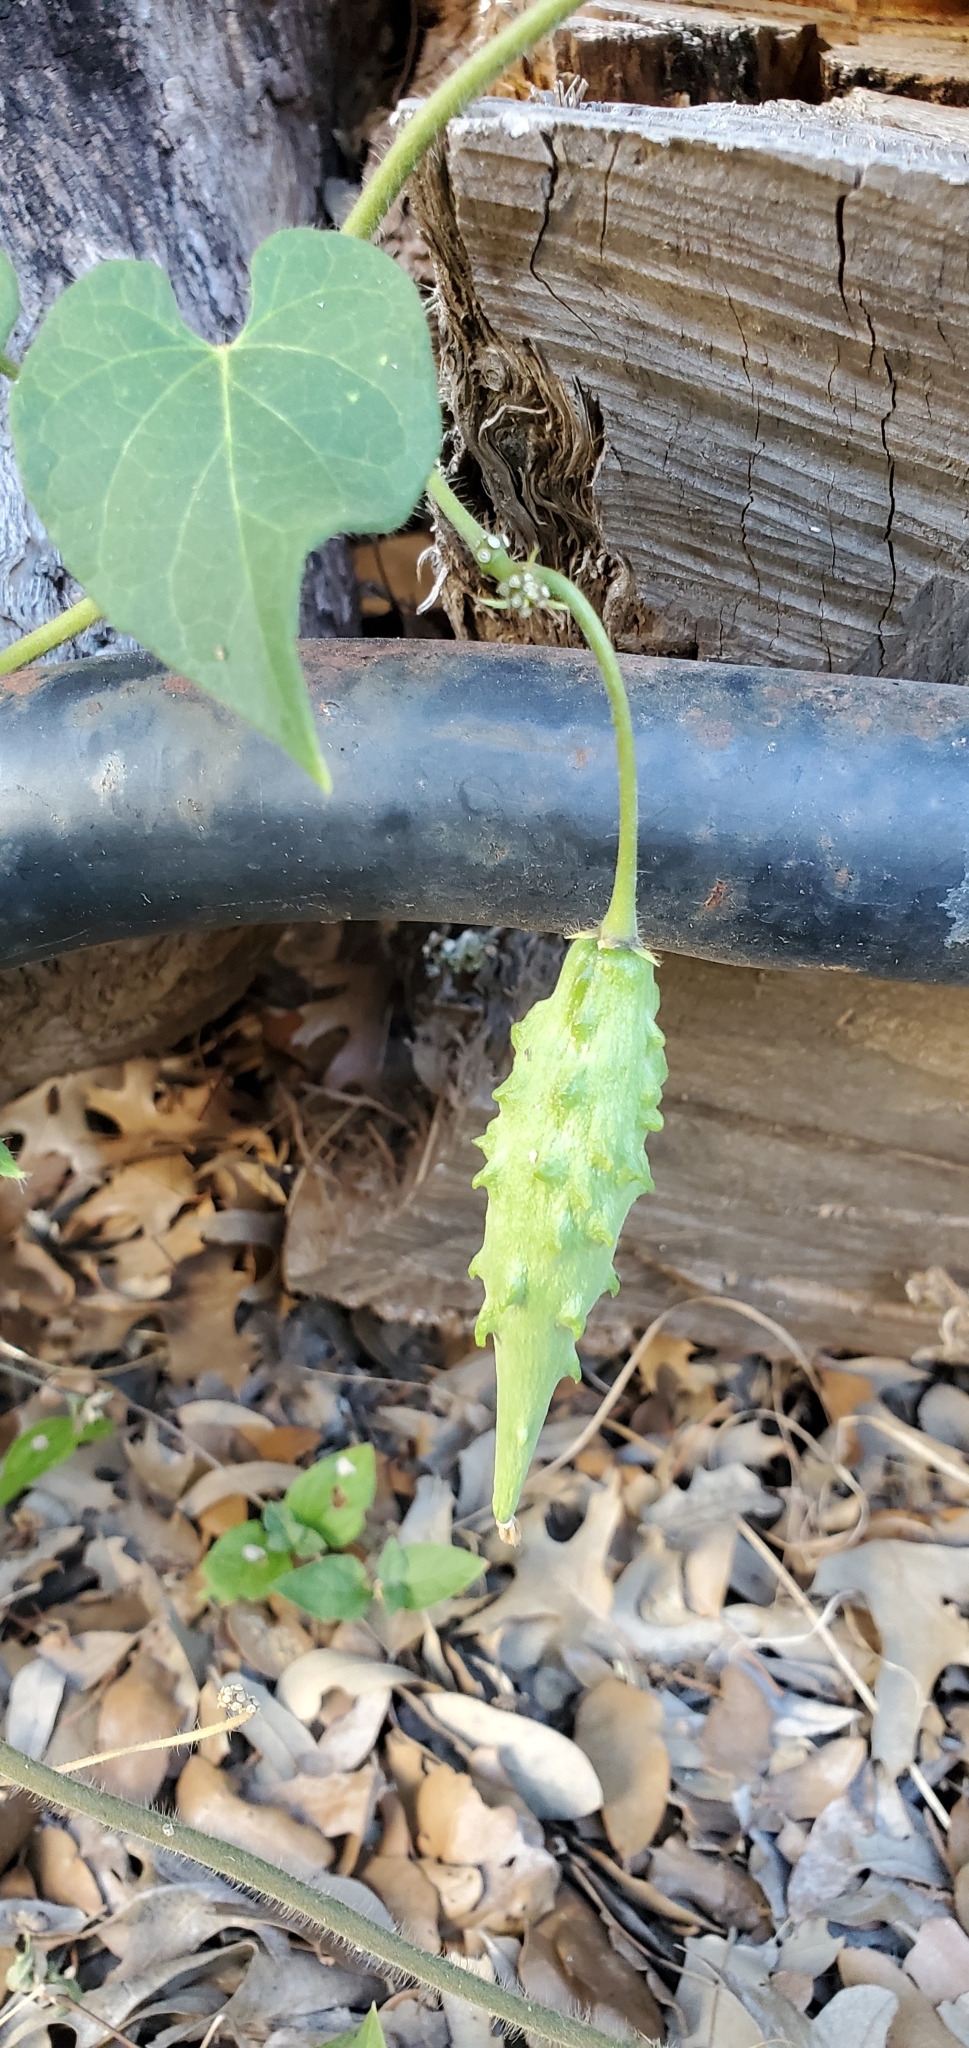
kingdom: Plantae
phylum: Tracheophyta
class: Magnoliopsida
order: Gentianales
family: Apocynaceae
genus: Dictyanthus
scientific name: Dictyanthus reticulatus
